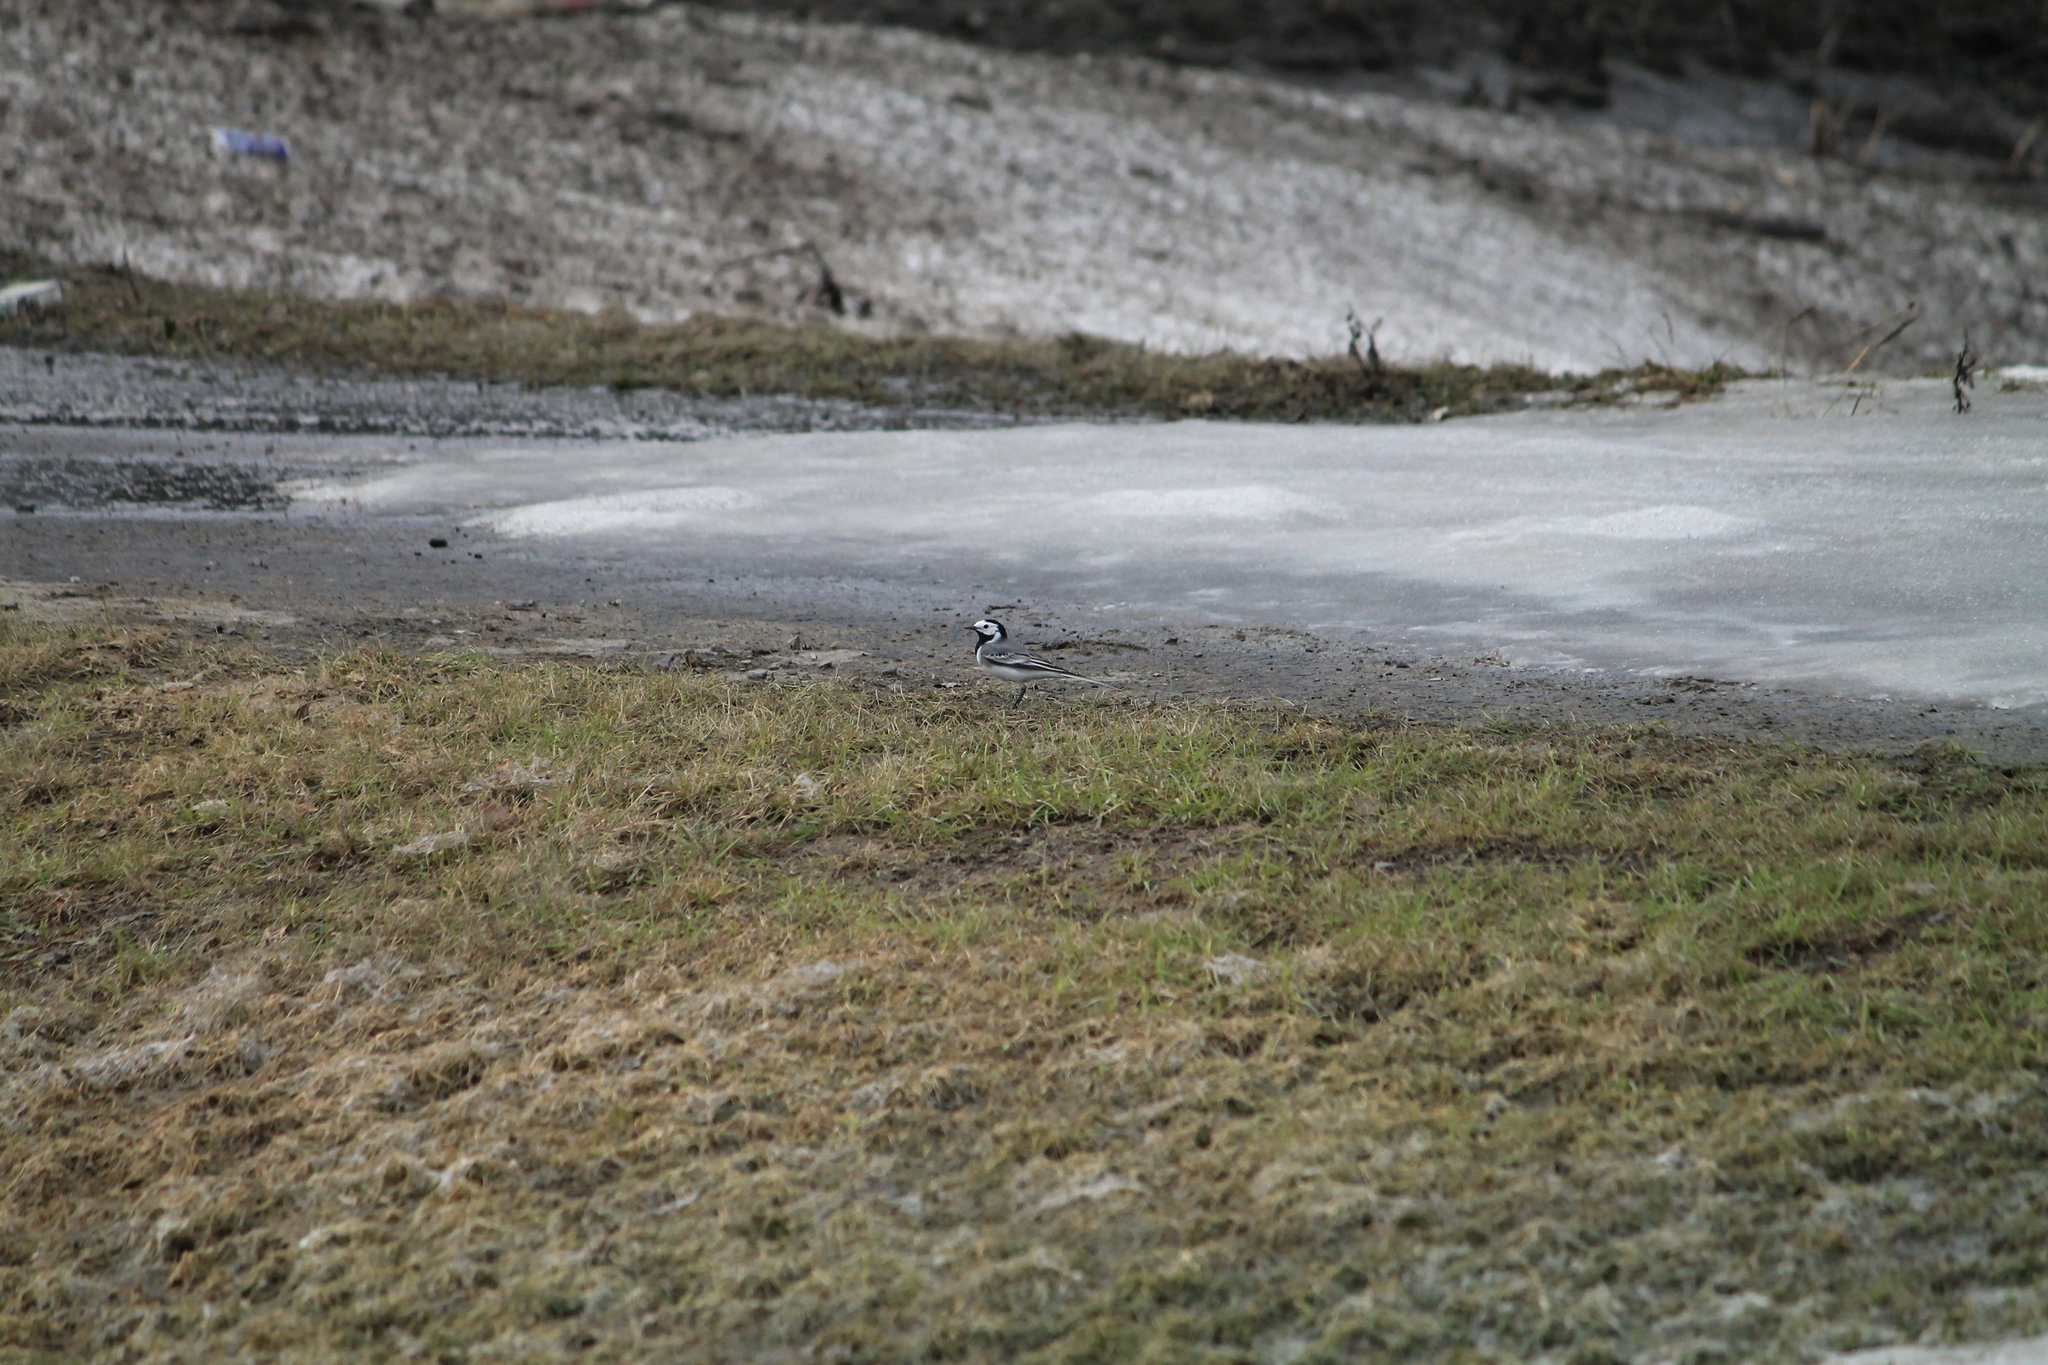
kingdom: Animalia
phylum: Chordata
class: Aves
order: Passeriformes
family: Motacillidae
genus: Motacilla
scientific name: Motacilla alba
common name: White wagtail
